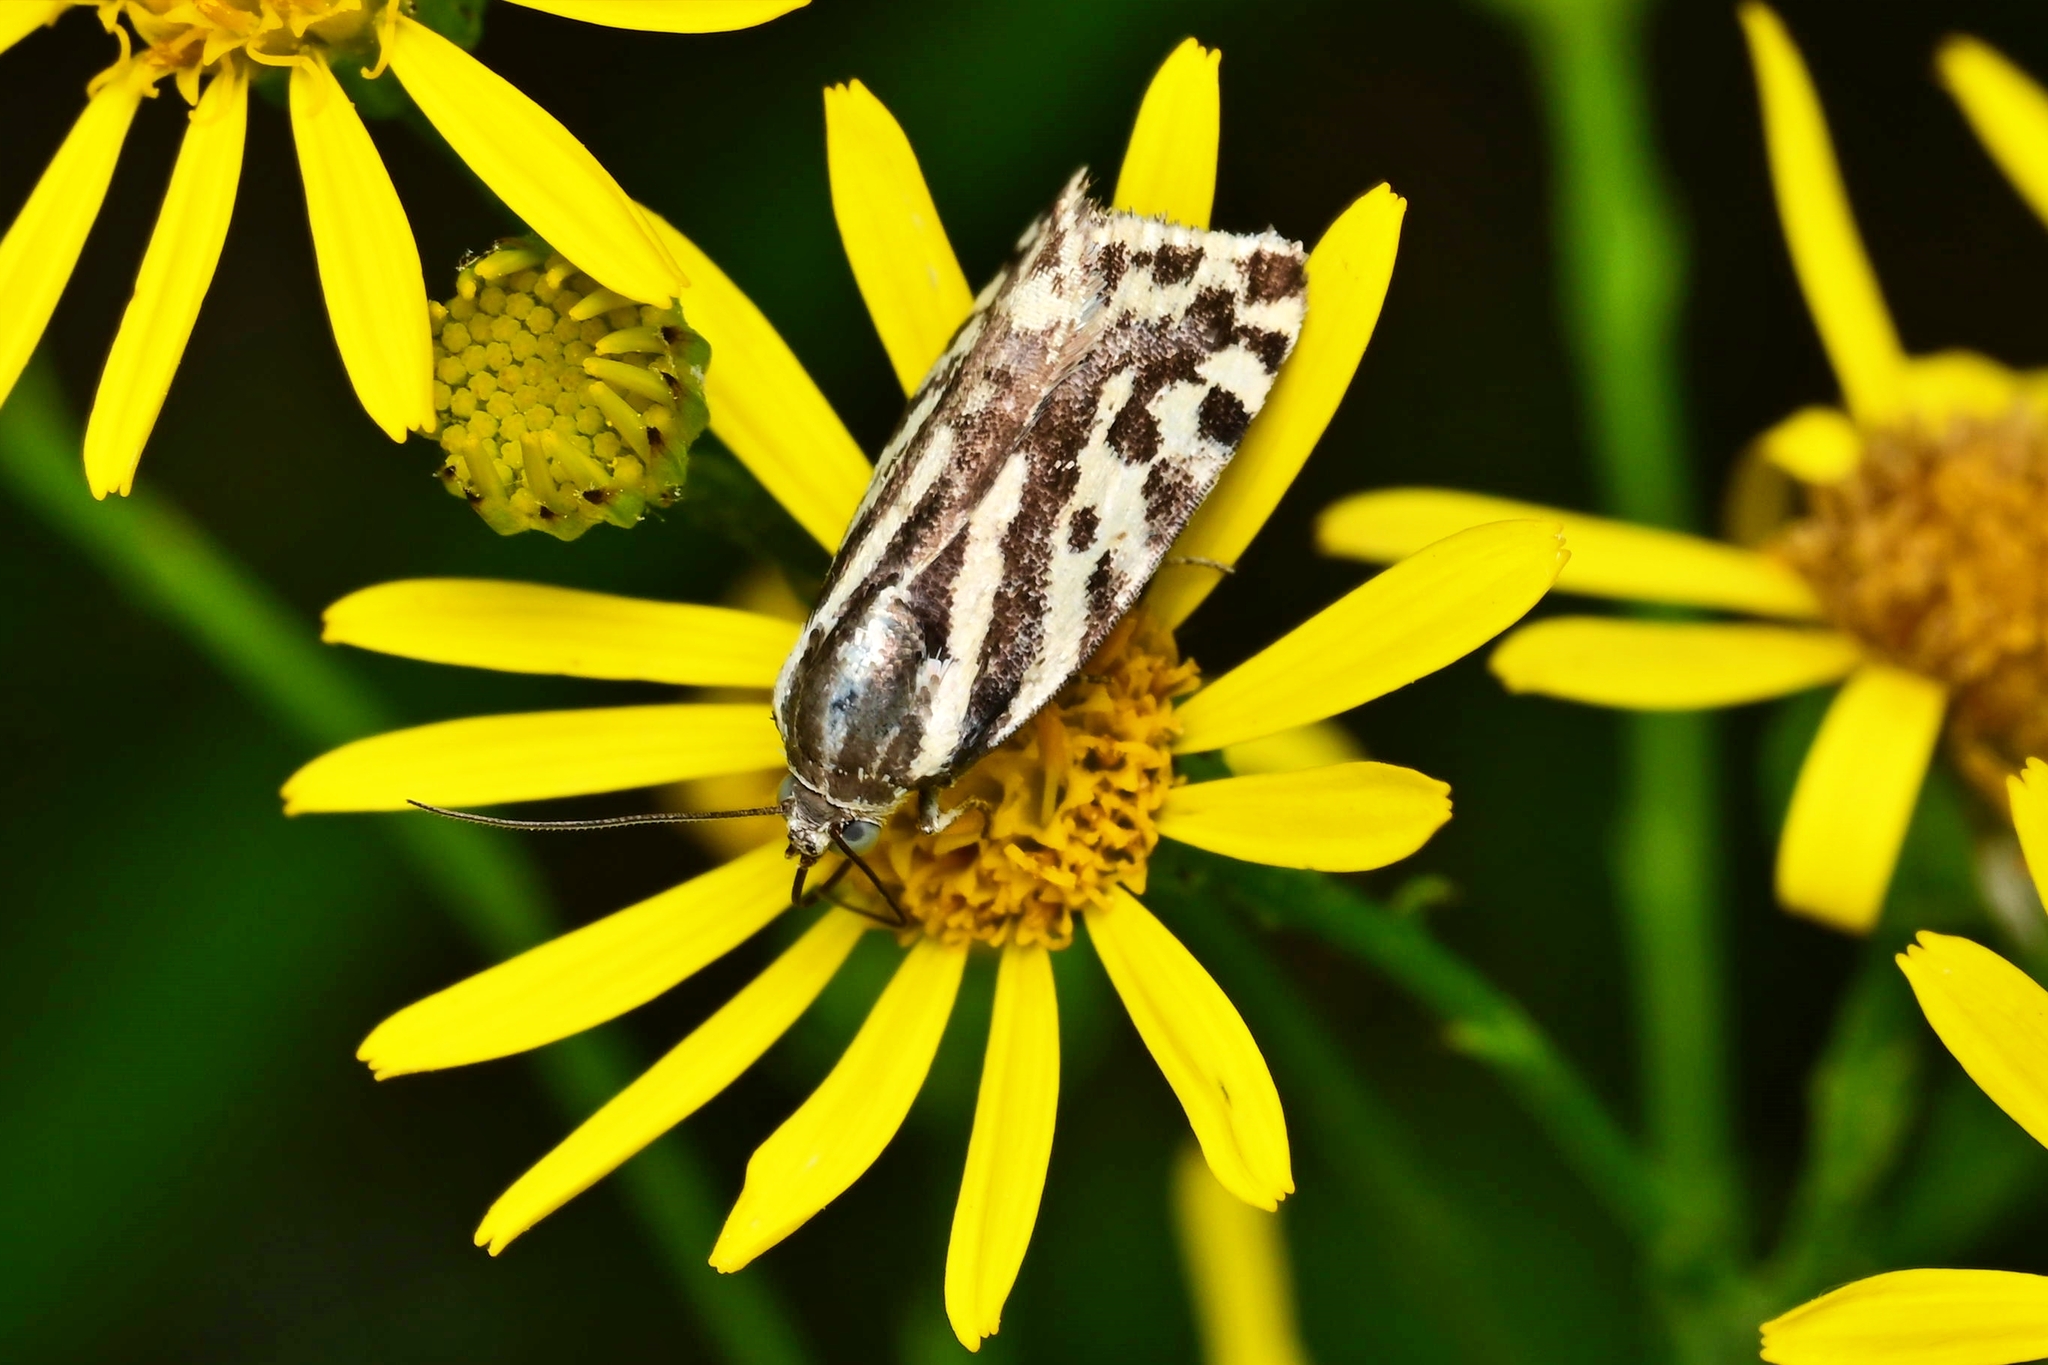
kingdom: Animalia
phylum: Arthropoda
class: Insecta
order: Lepidoptera
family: Noctuidae
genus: Acontia
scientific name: Acontia trabealis
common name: Spotted sulphur
